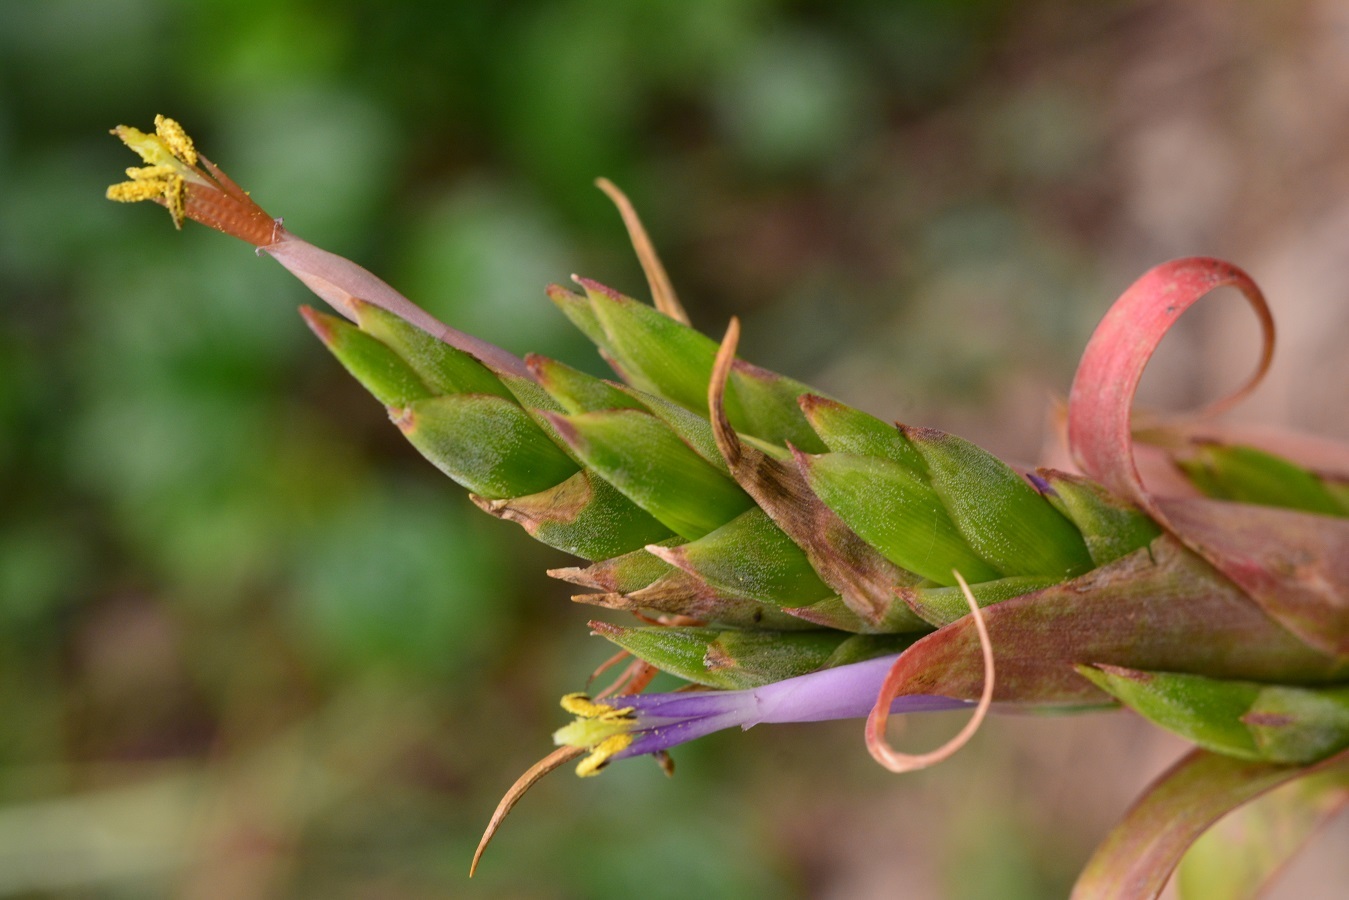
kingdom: Plantae
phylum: Tracheophyta
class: Liliopsida
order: Poales
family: Bromeliaceae
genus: Tillandsia
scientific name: Tillandsia belloensis
